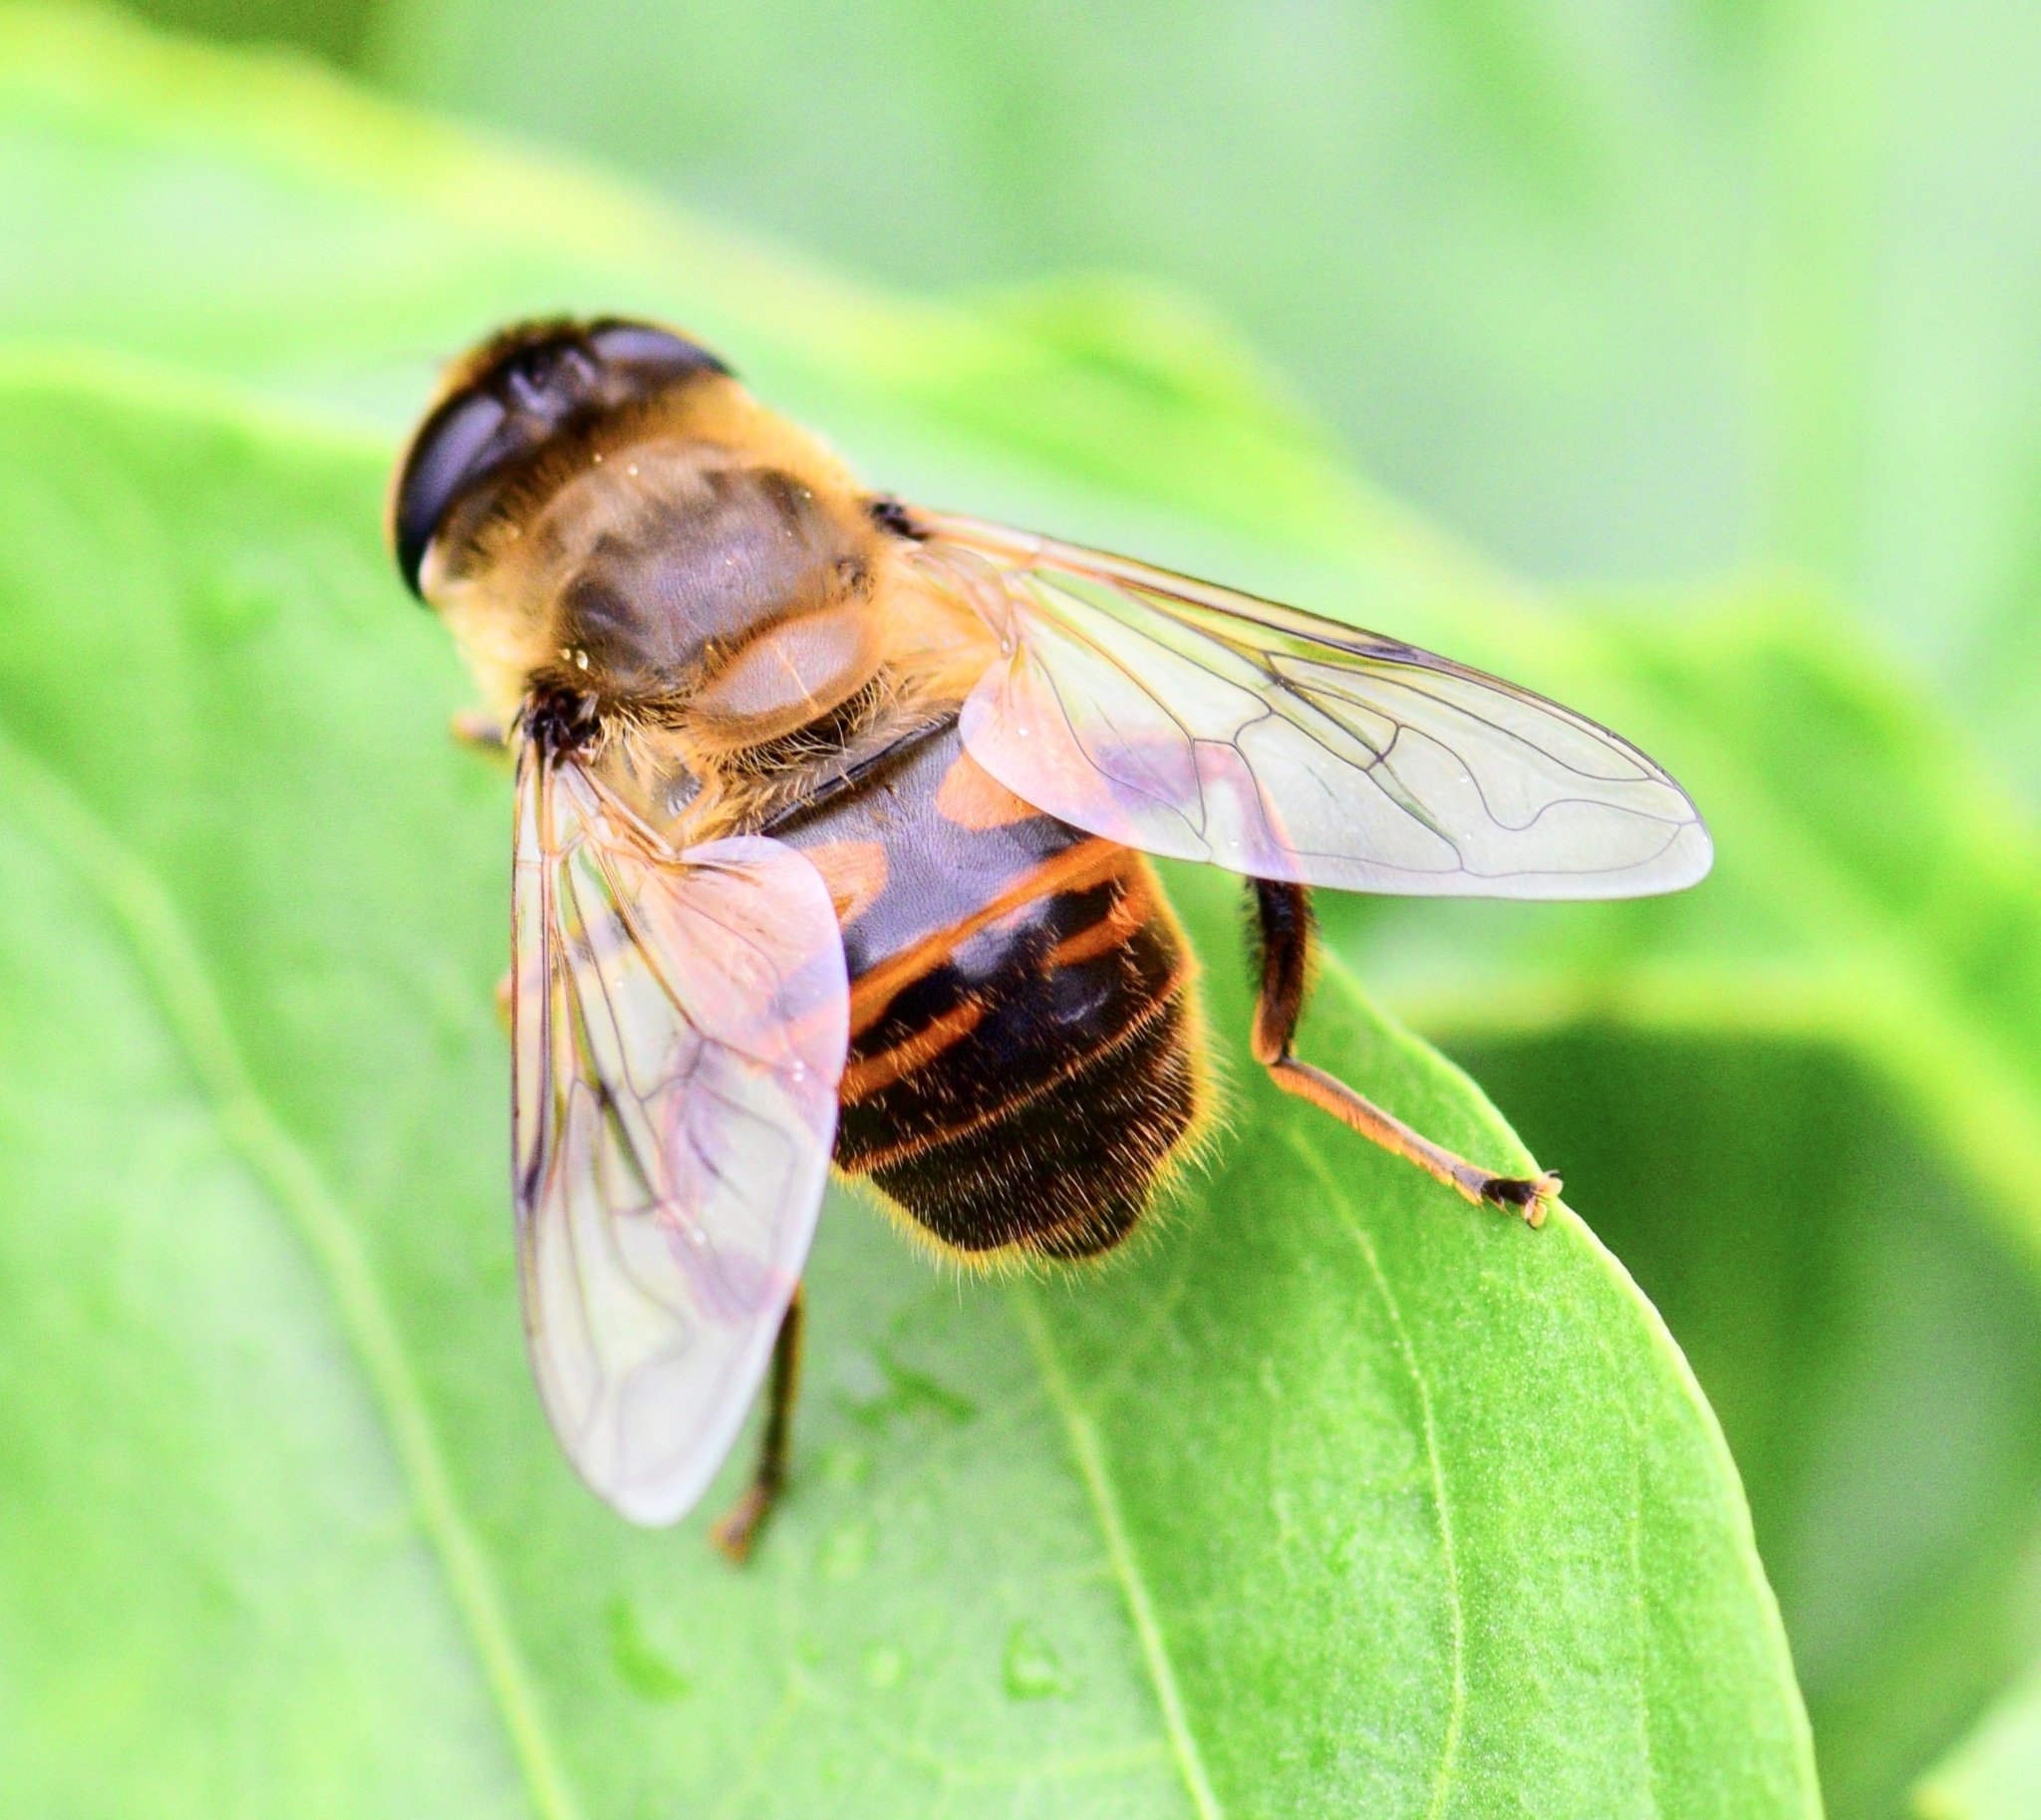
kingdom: Animalia
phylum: Arthropoda
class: Insecta
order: Diptera
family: Syrphidae
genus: Eristalis
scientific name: Eristalis tenax
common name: Drone fly
